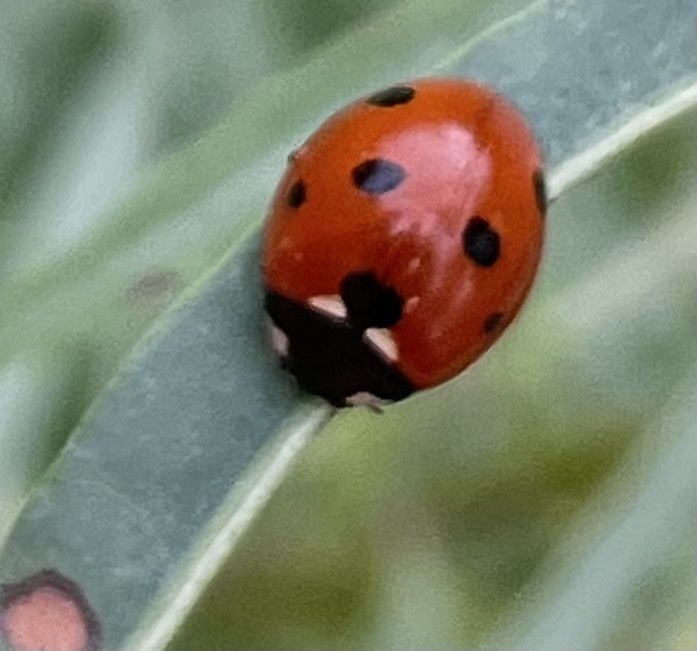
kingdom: Animalia
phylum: Arthropoda
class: Insecta
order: Coleoptera
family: Coccinellidae
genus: Coccinella
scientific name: Coccinella septempunctata
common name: Sevenspotted lady beetle
